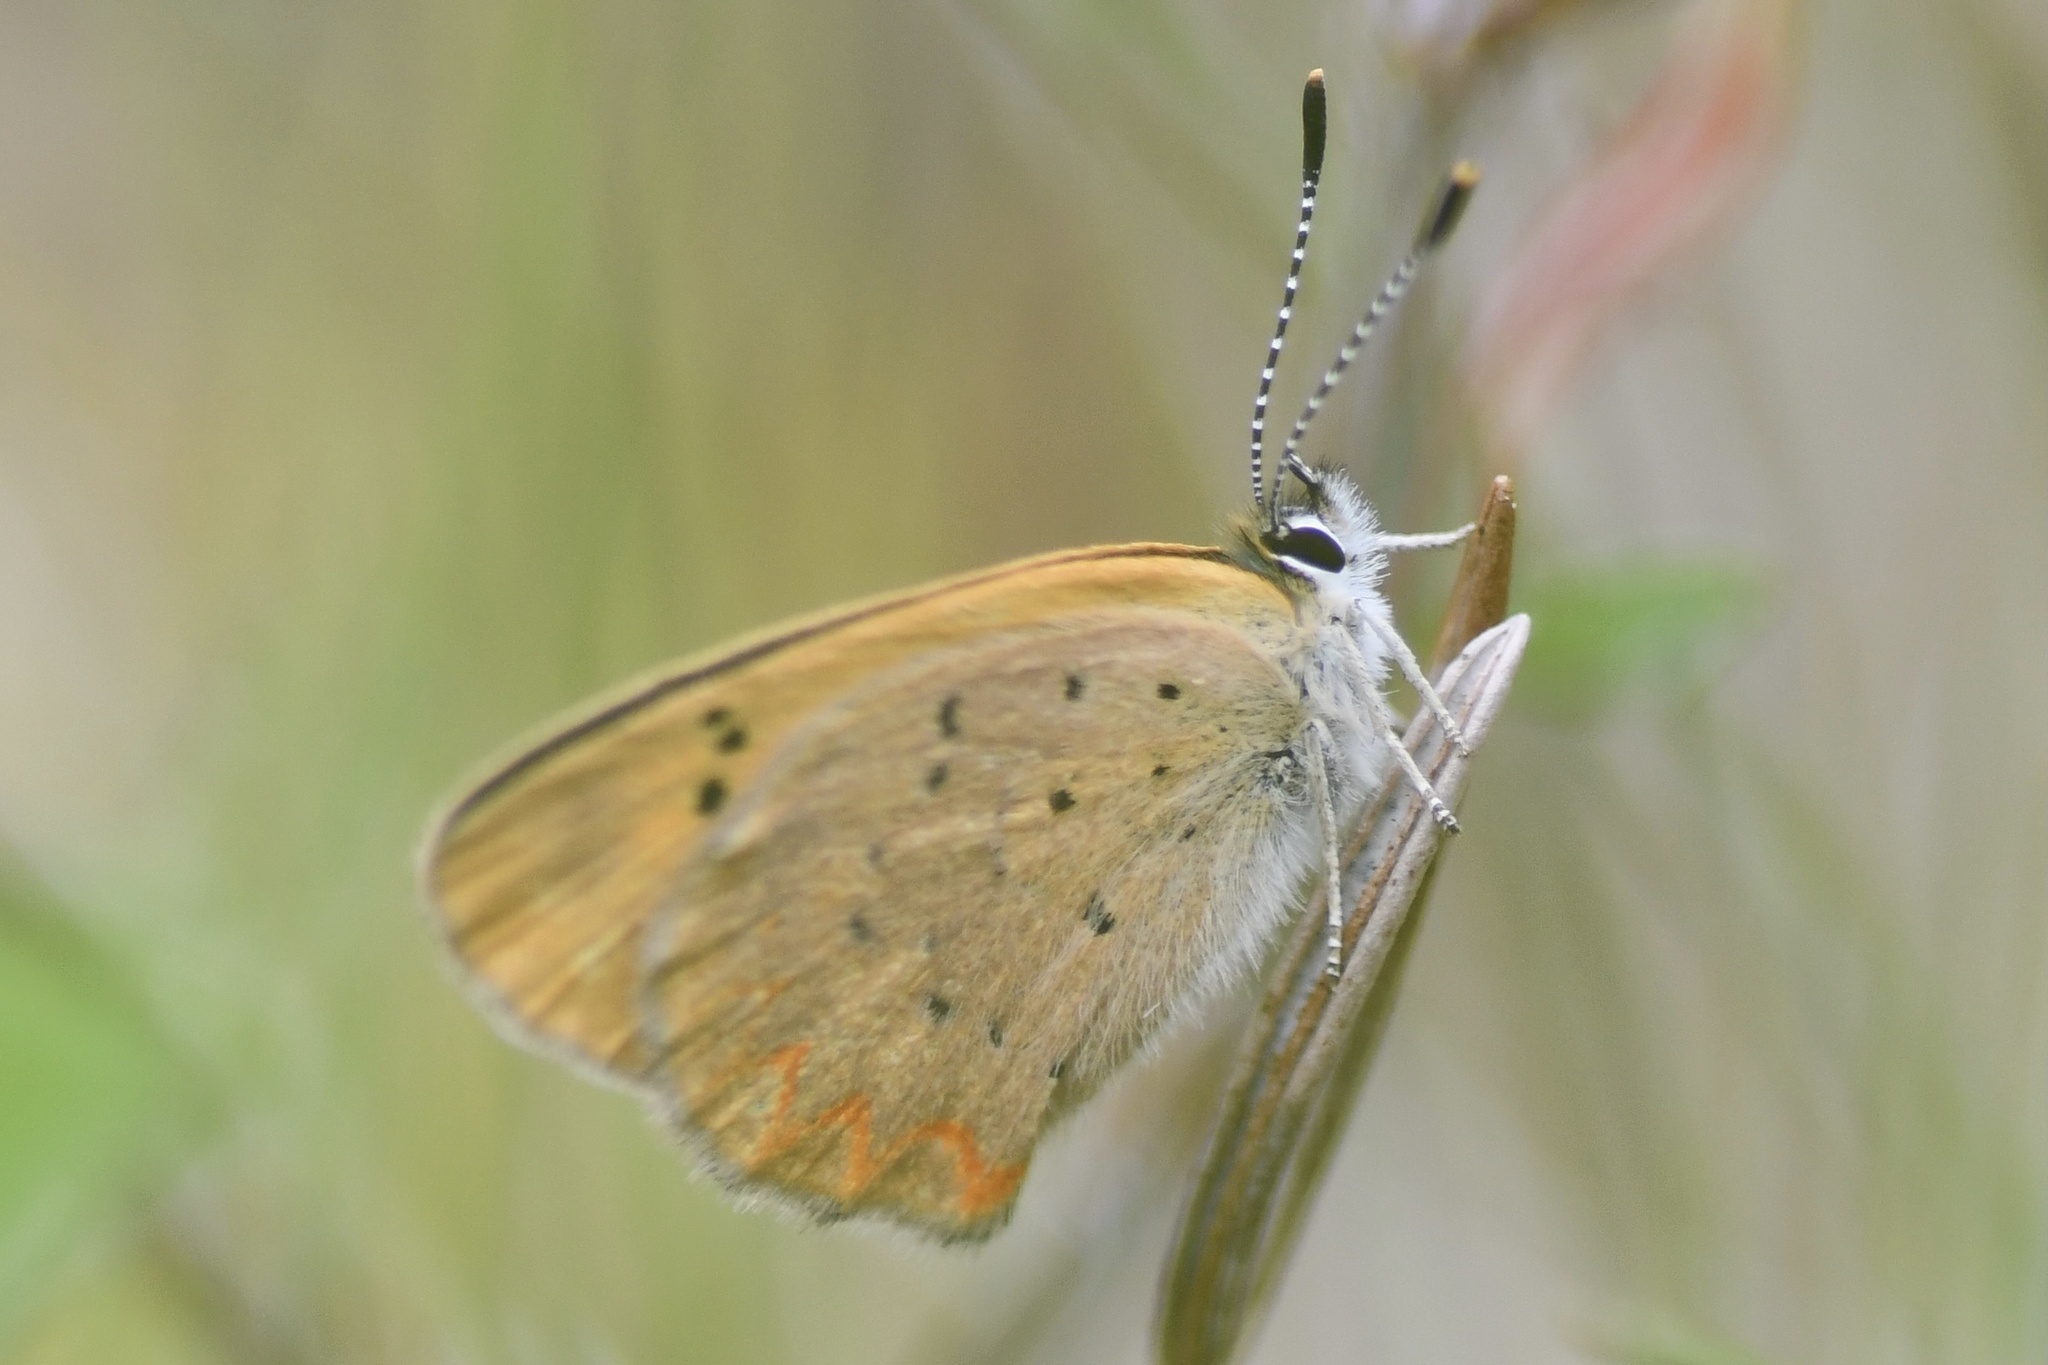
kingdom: Animalia
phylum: Arthropoda
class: Insecta
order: Lepidoptera
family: Lycaenidae
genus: Tharsalea
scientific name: Tharsalea dorcas
